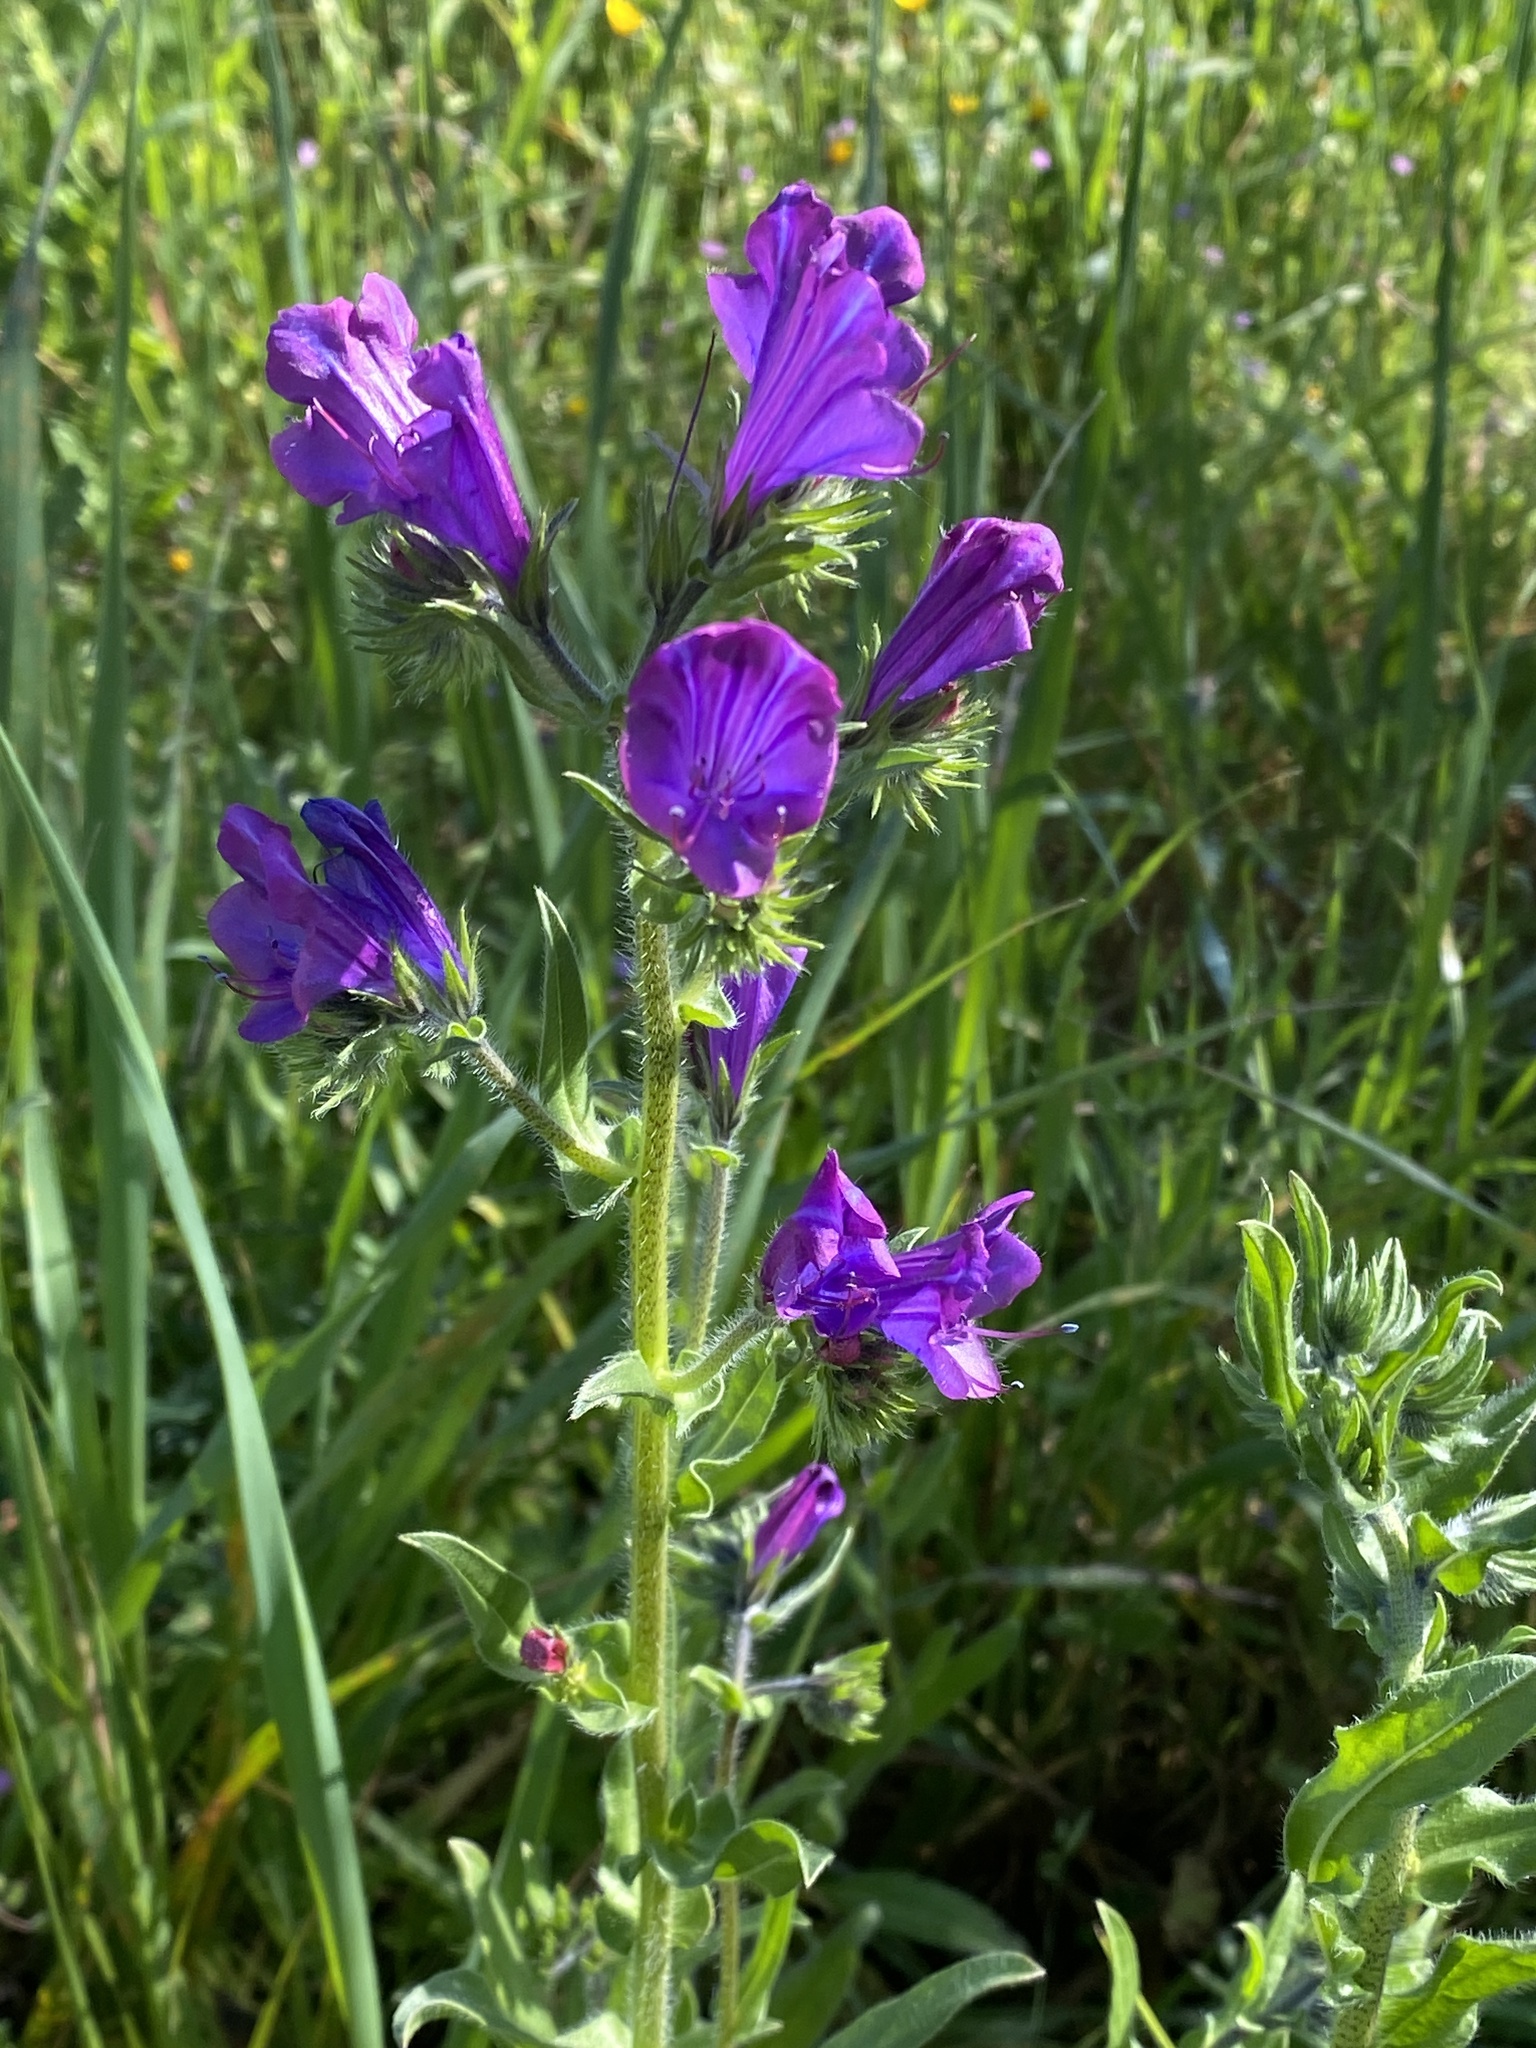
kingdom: Plantae
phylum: Tracheophyta
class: Magnoliopsida
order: Boraginales
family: Boraginaceae
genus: Echium
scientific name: Echium plantagineum
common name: Purple viper's-bugloss
